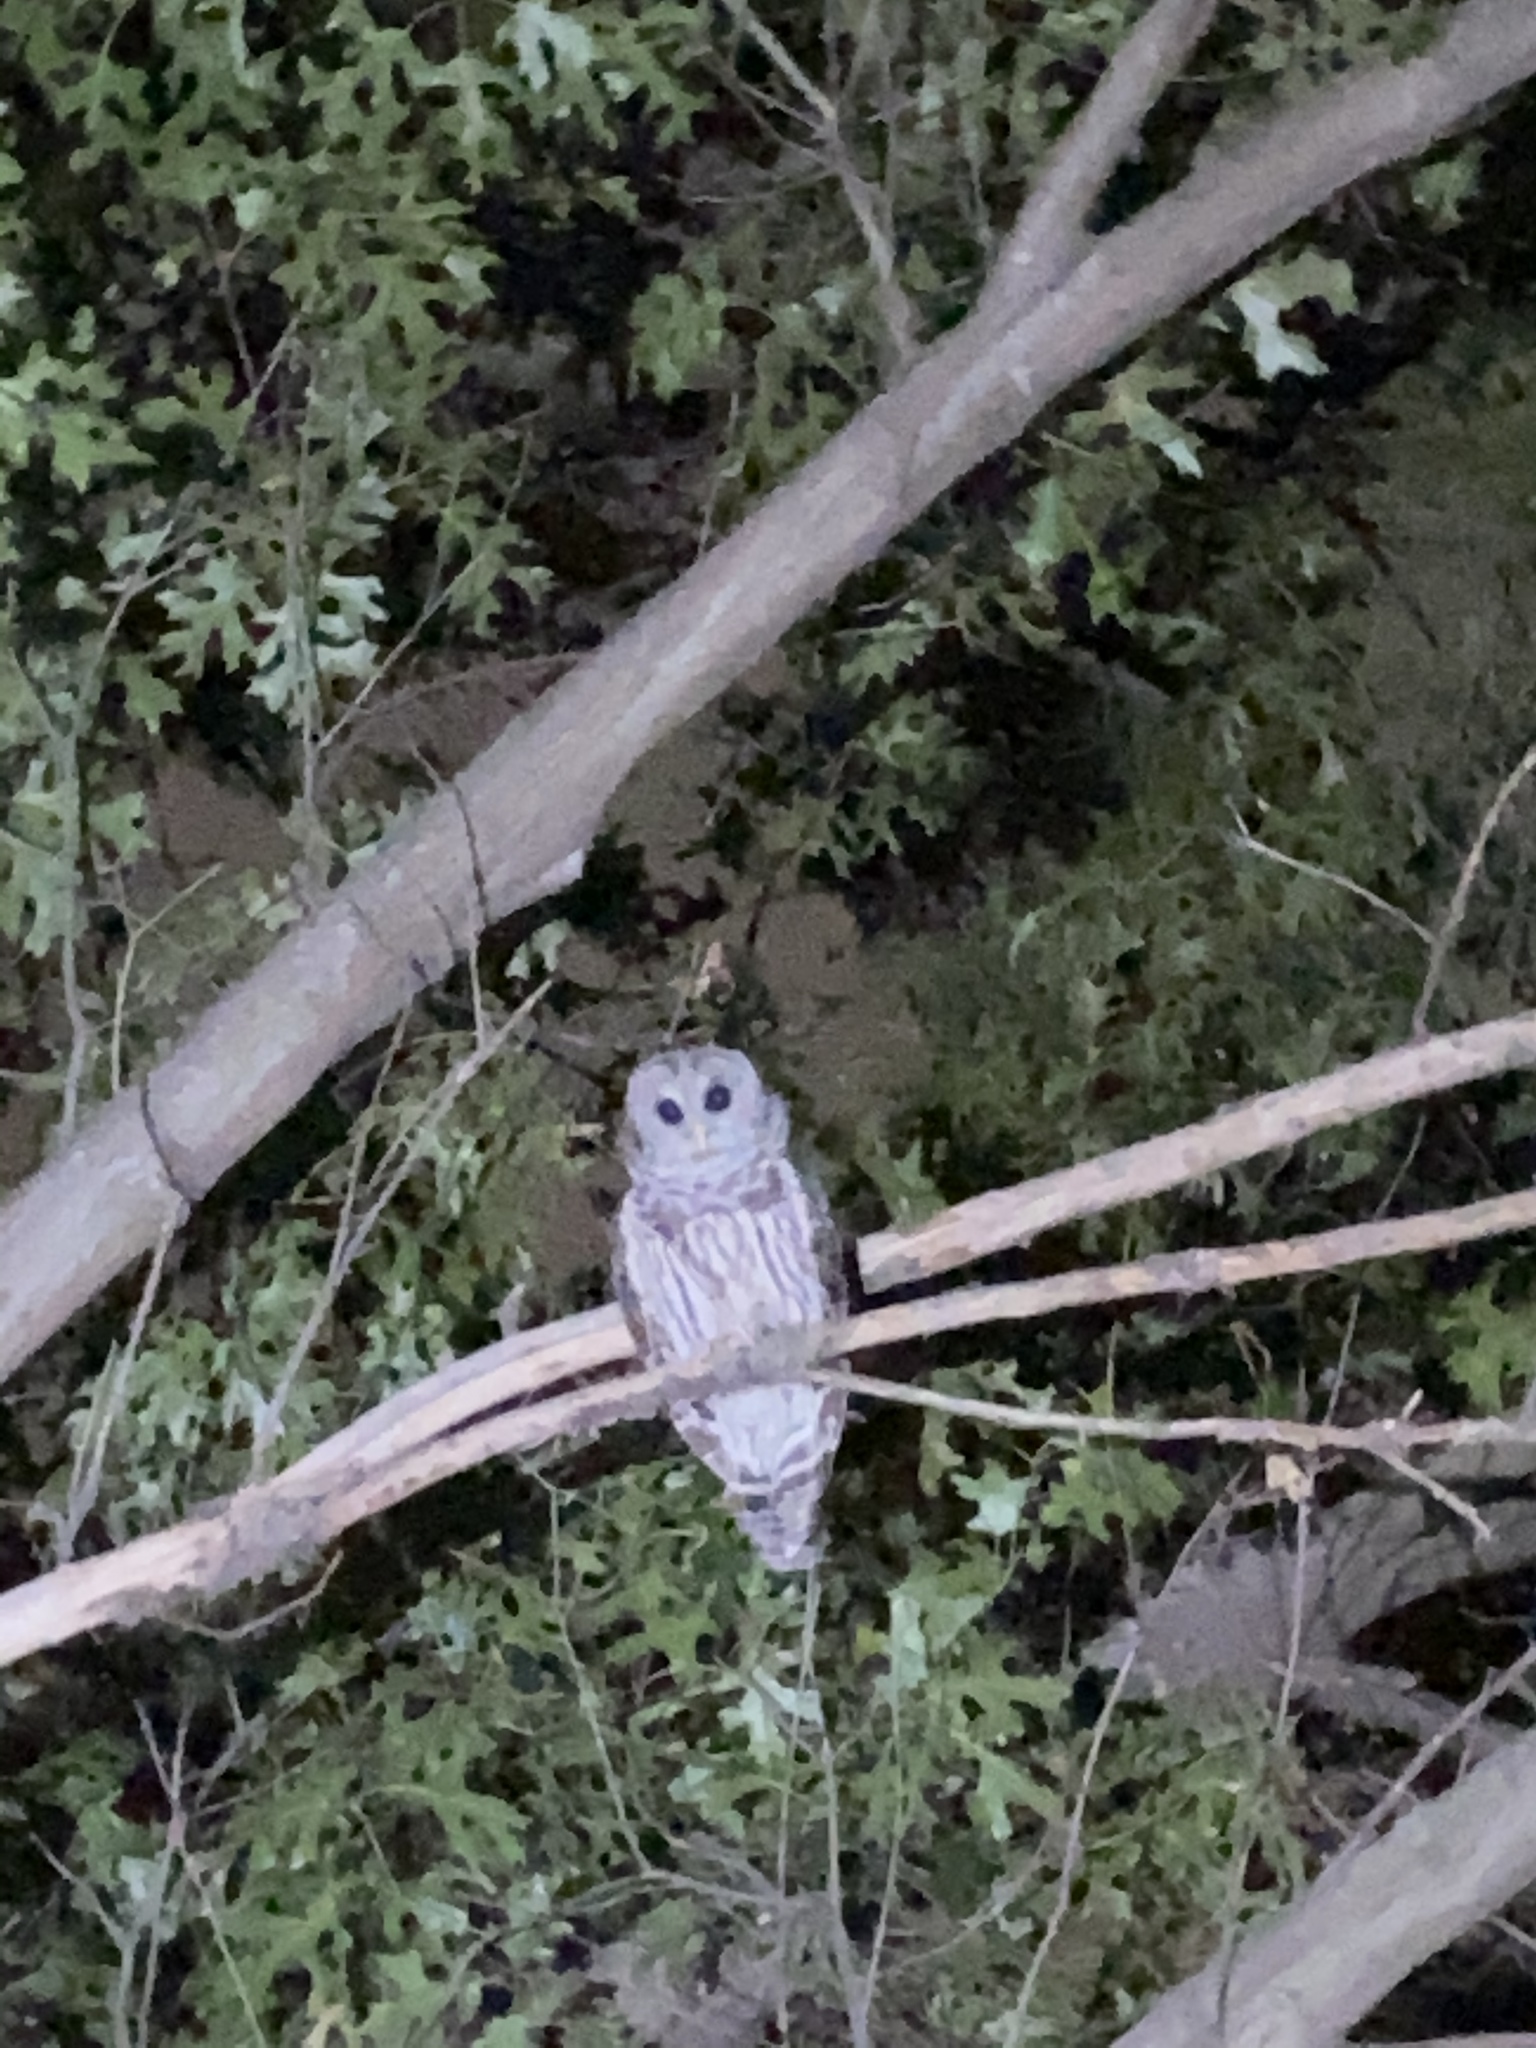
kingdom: Animalia
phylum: Chordata
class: Aves
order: Strigiformes
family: Strigidae
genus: Strix
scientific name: Strix varia
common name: Barred owl
